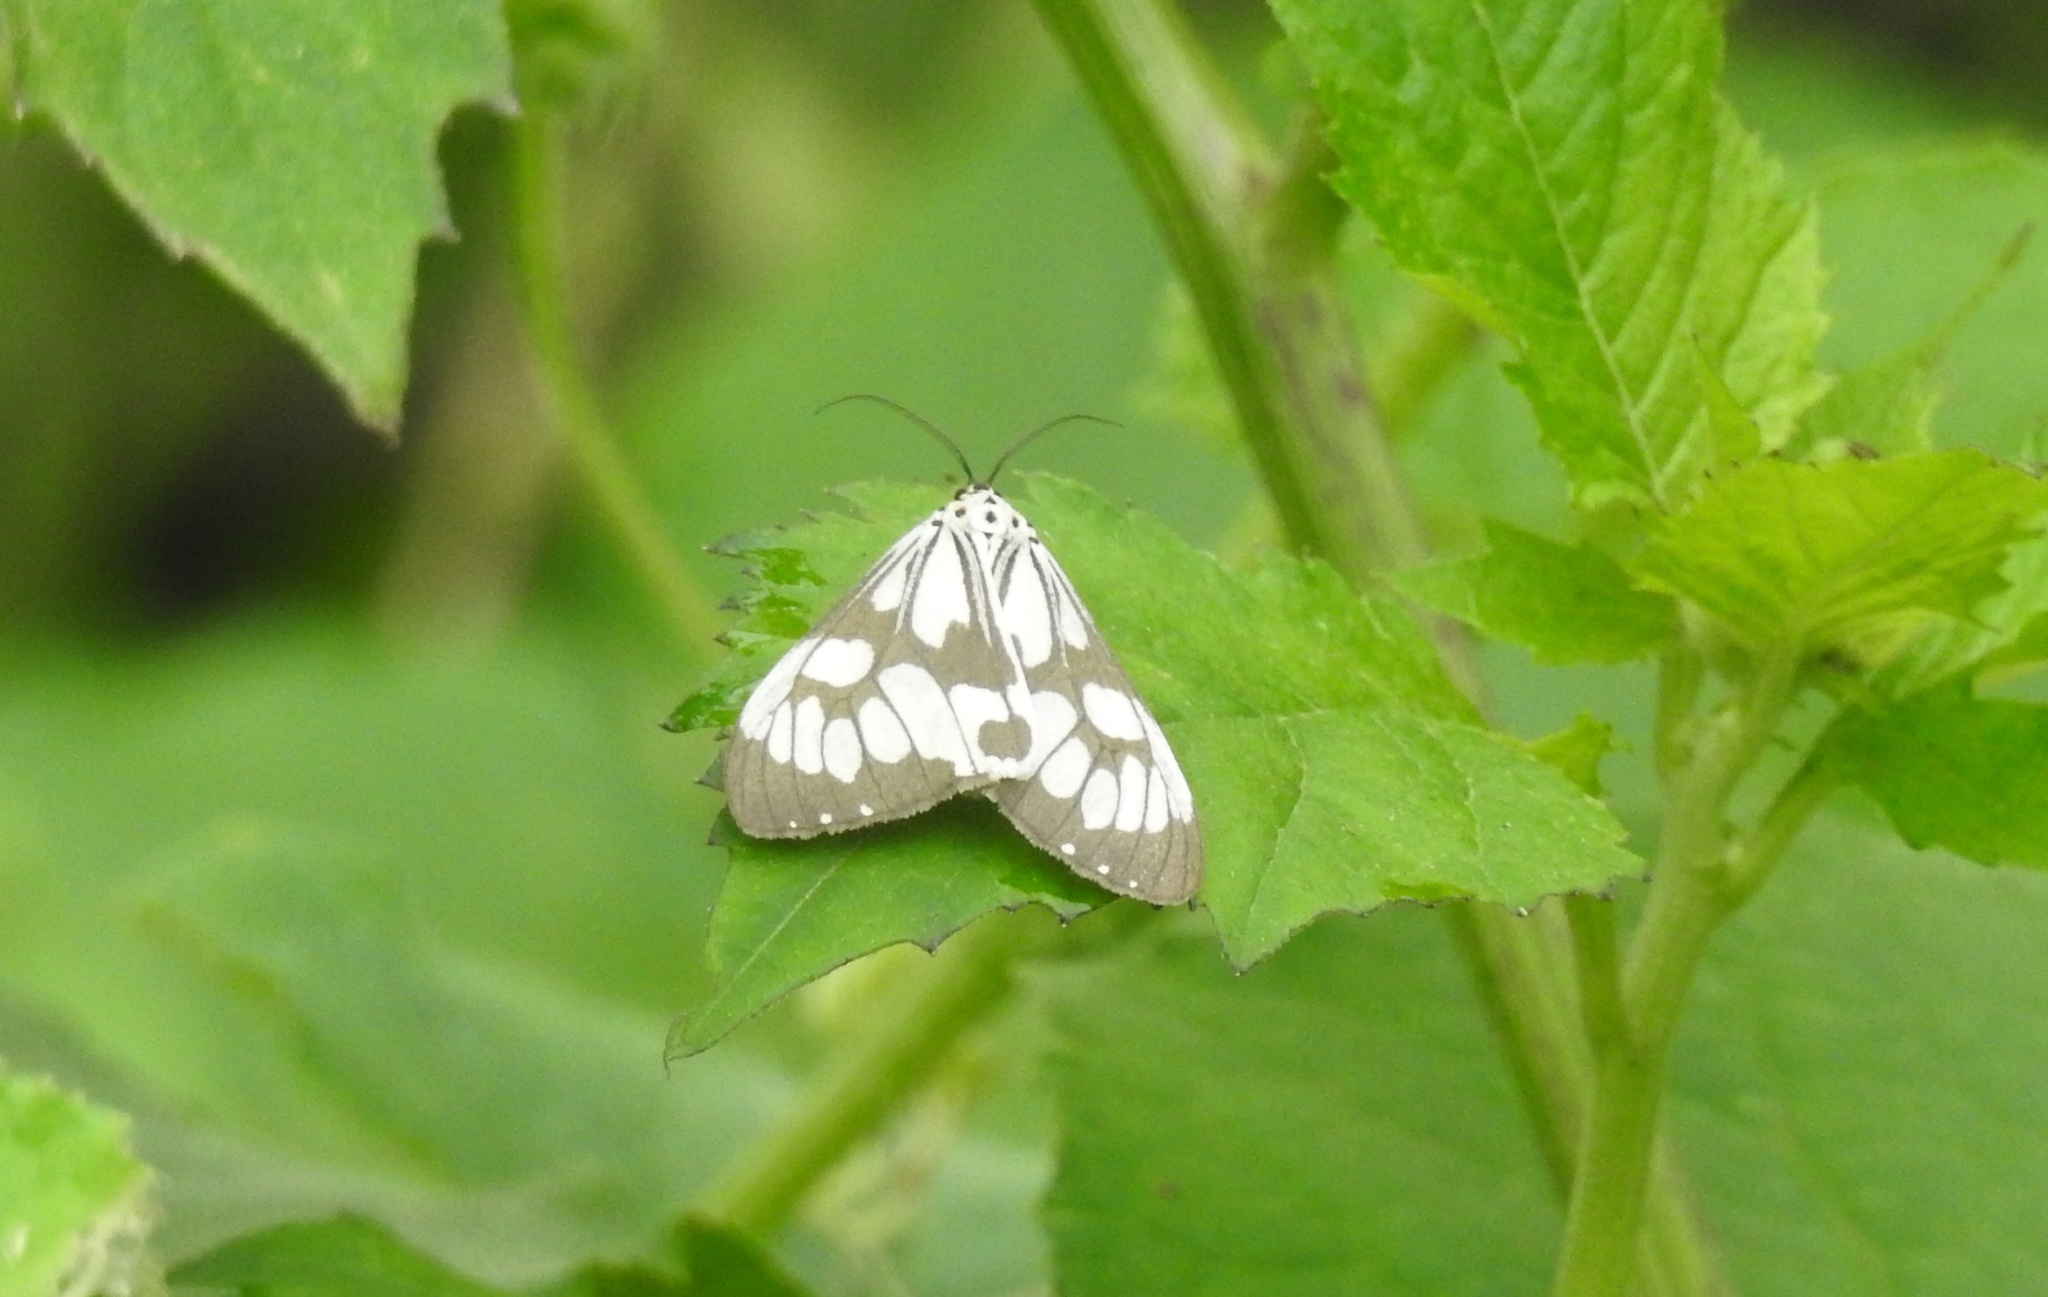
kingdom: Animalia
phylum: Arthropoda
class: Insecta
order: Lepidoptera
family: Erebidae
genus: Nyctemera
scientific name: Nyctemera adversata
